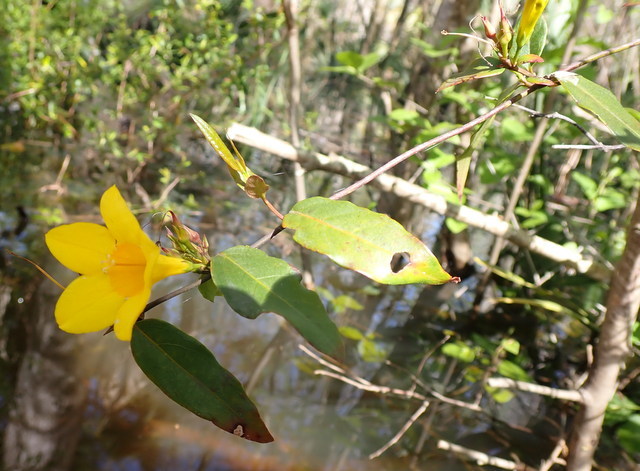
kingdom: Plantae
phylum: Tracheophyta
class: Magnoliopsida
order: Gentianales
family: Gelsemiaceae
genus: Gelsemium
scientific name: Gelsemium rankinii
